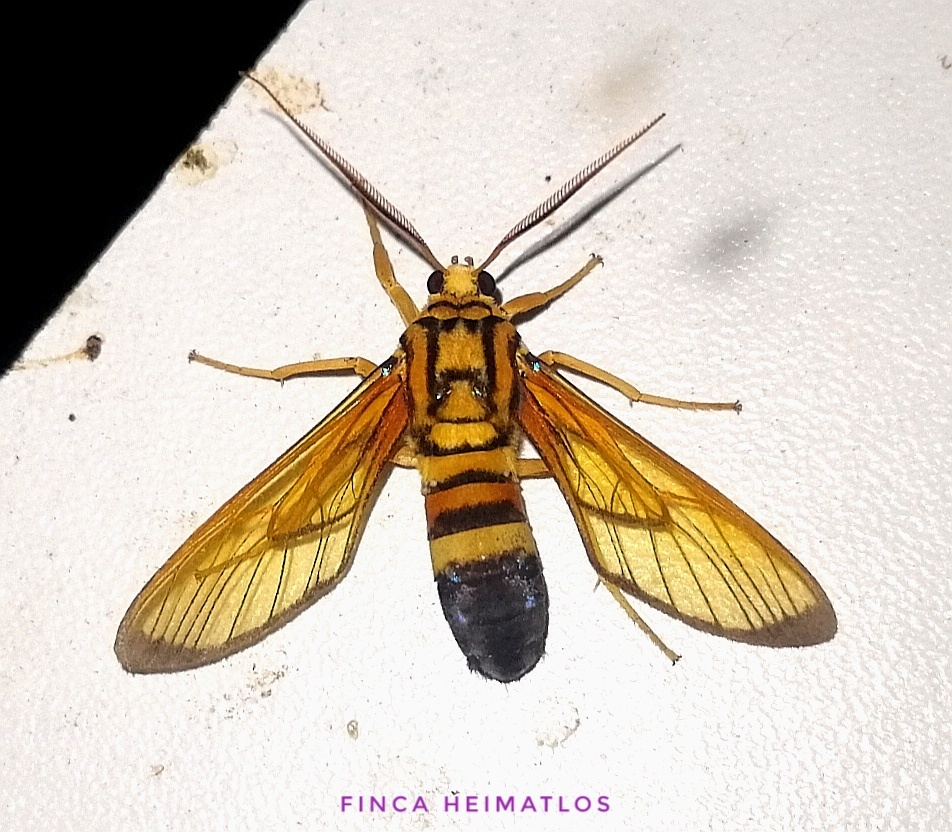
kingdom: Animalia
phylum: Arthropoda
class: Insecta
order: Lepidoptera
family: Erebidae
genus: Isanthrene
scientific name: Isanthrene porphyria
